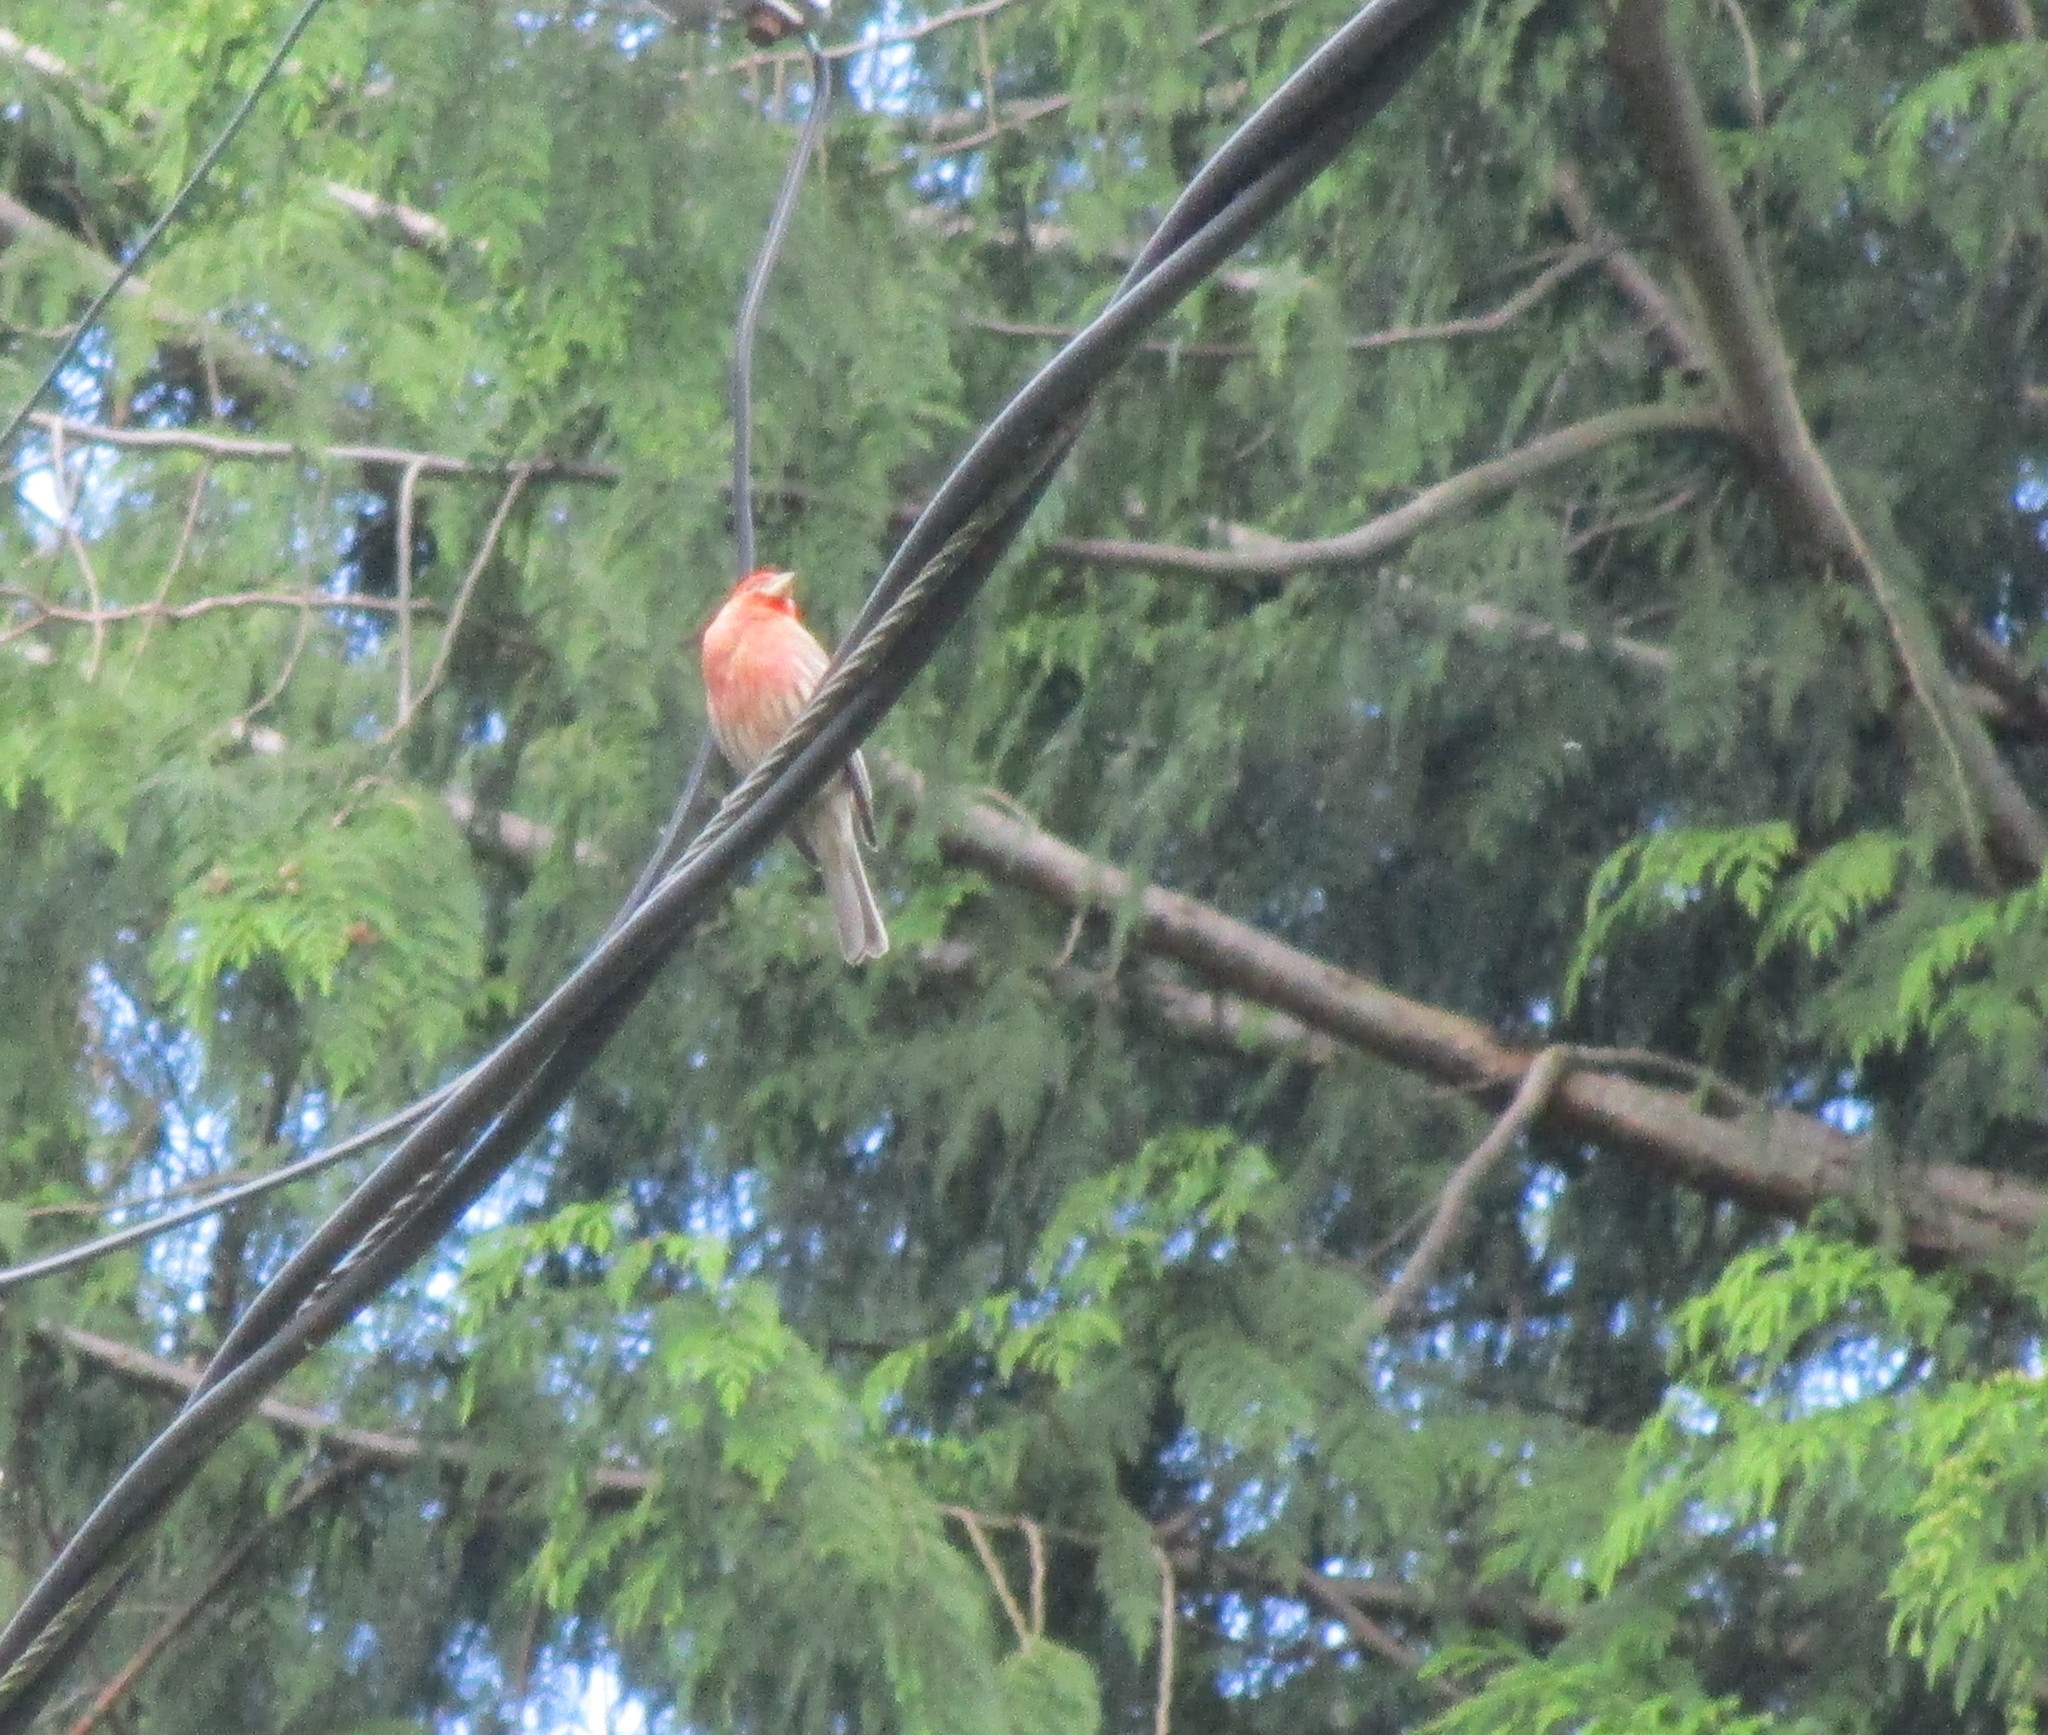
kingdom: Animalia
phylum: Chordata
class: Aves
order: Passeriformes
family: Fringillidae
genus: Haemorhous
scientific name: Haemorhous mexicanus
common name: House finch
